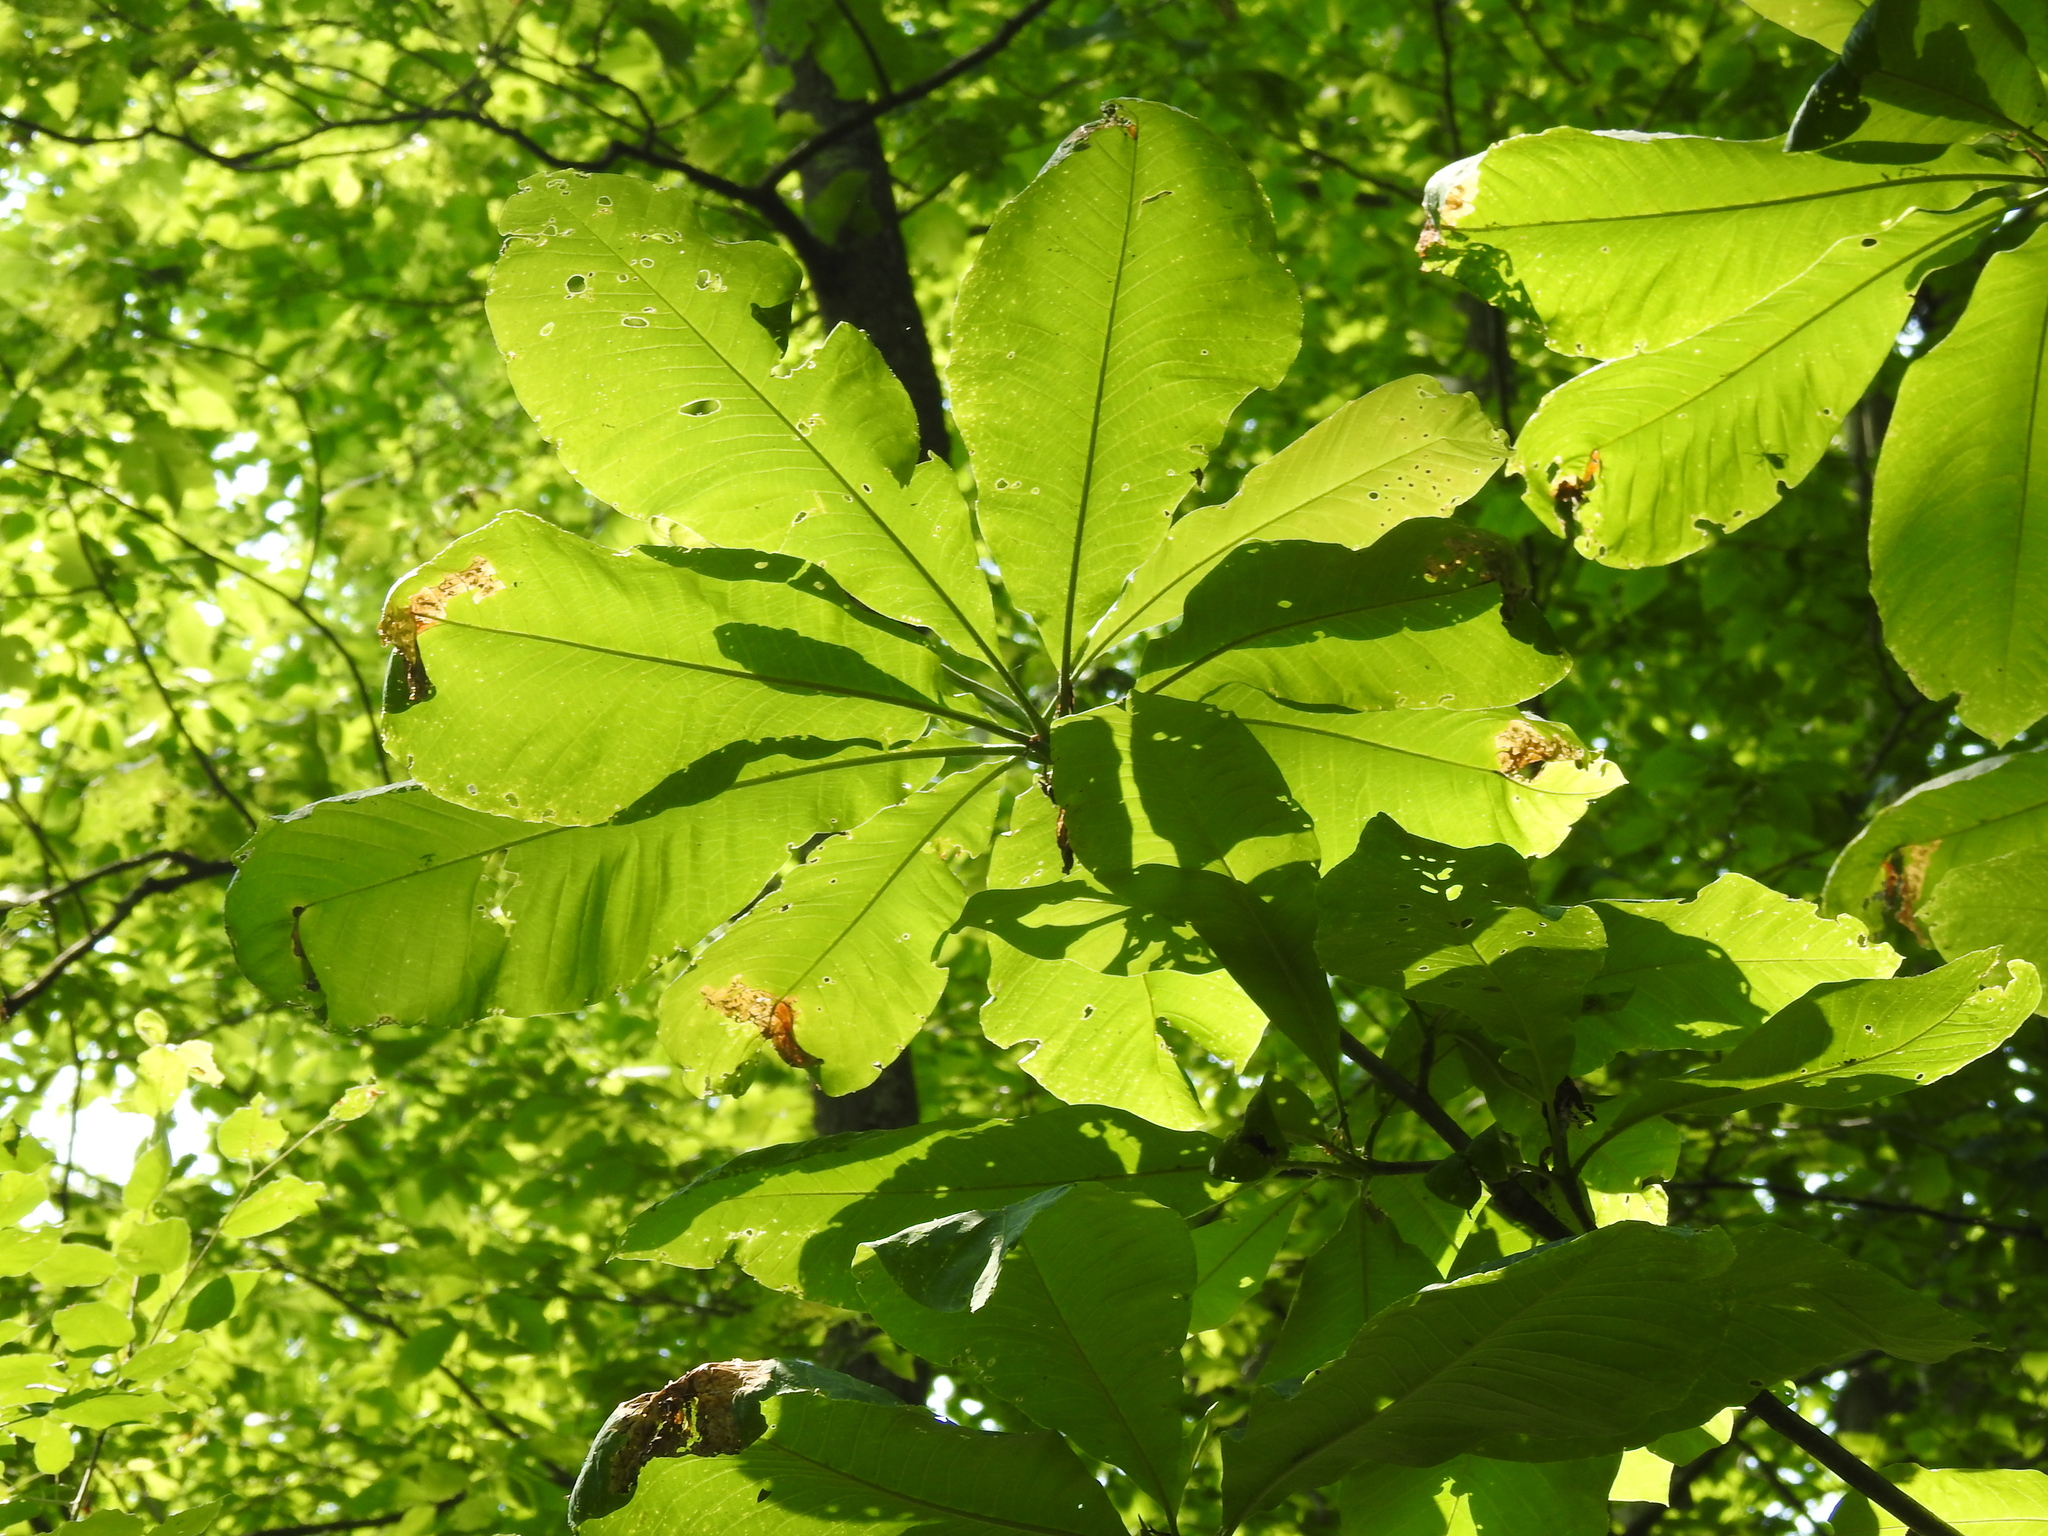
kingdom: Plantae
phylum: Tracheophyta
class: Magnoliopsida
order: Magnoliales
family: Magnoliaceae
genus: Magnolia
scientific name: Magnolia tripetala
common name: Umbrella magnolia
